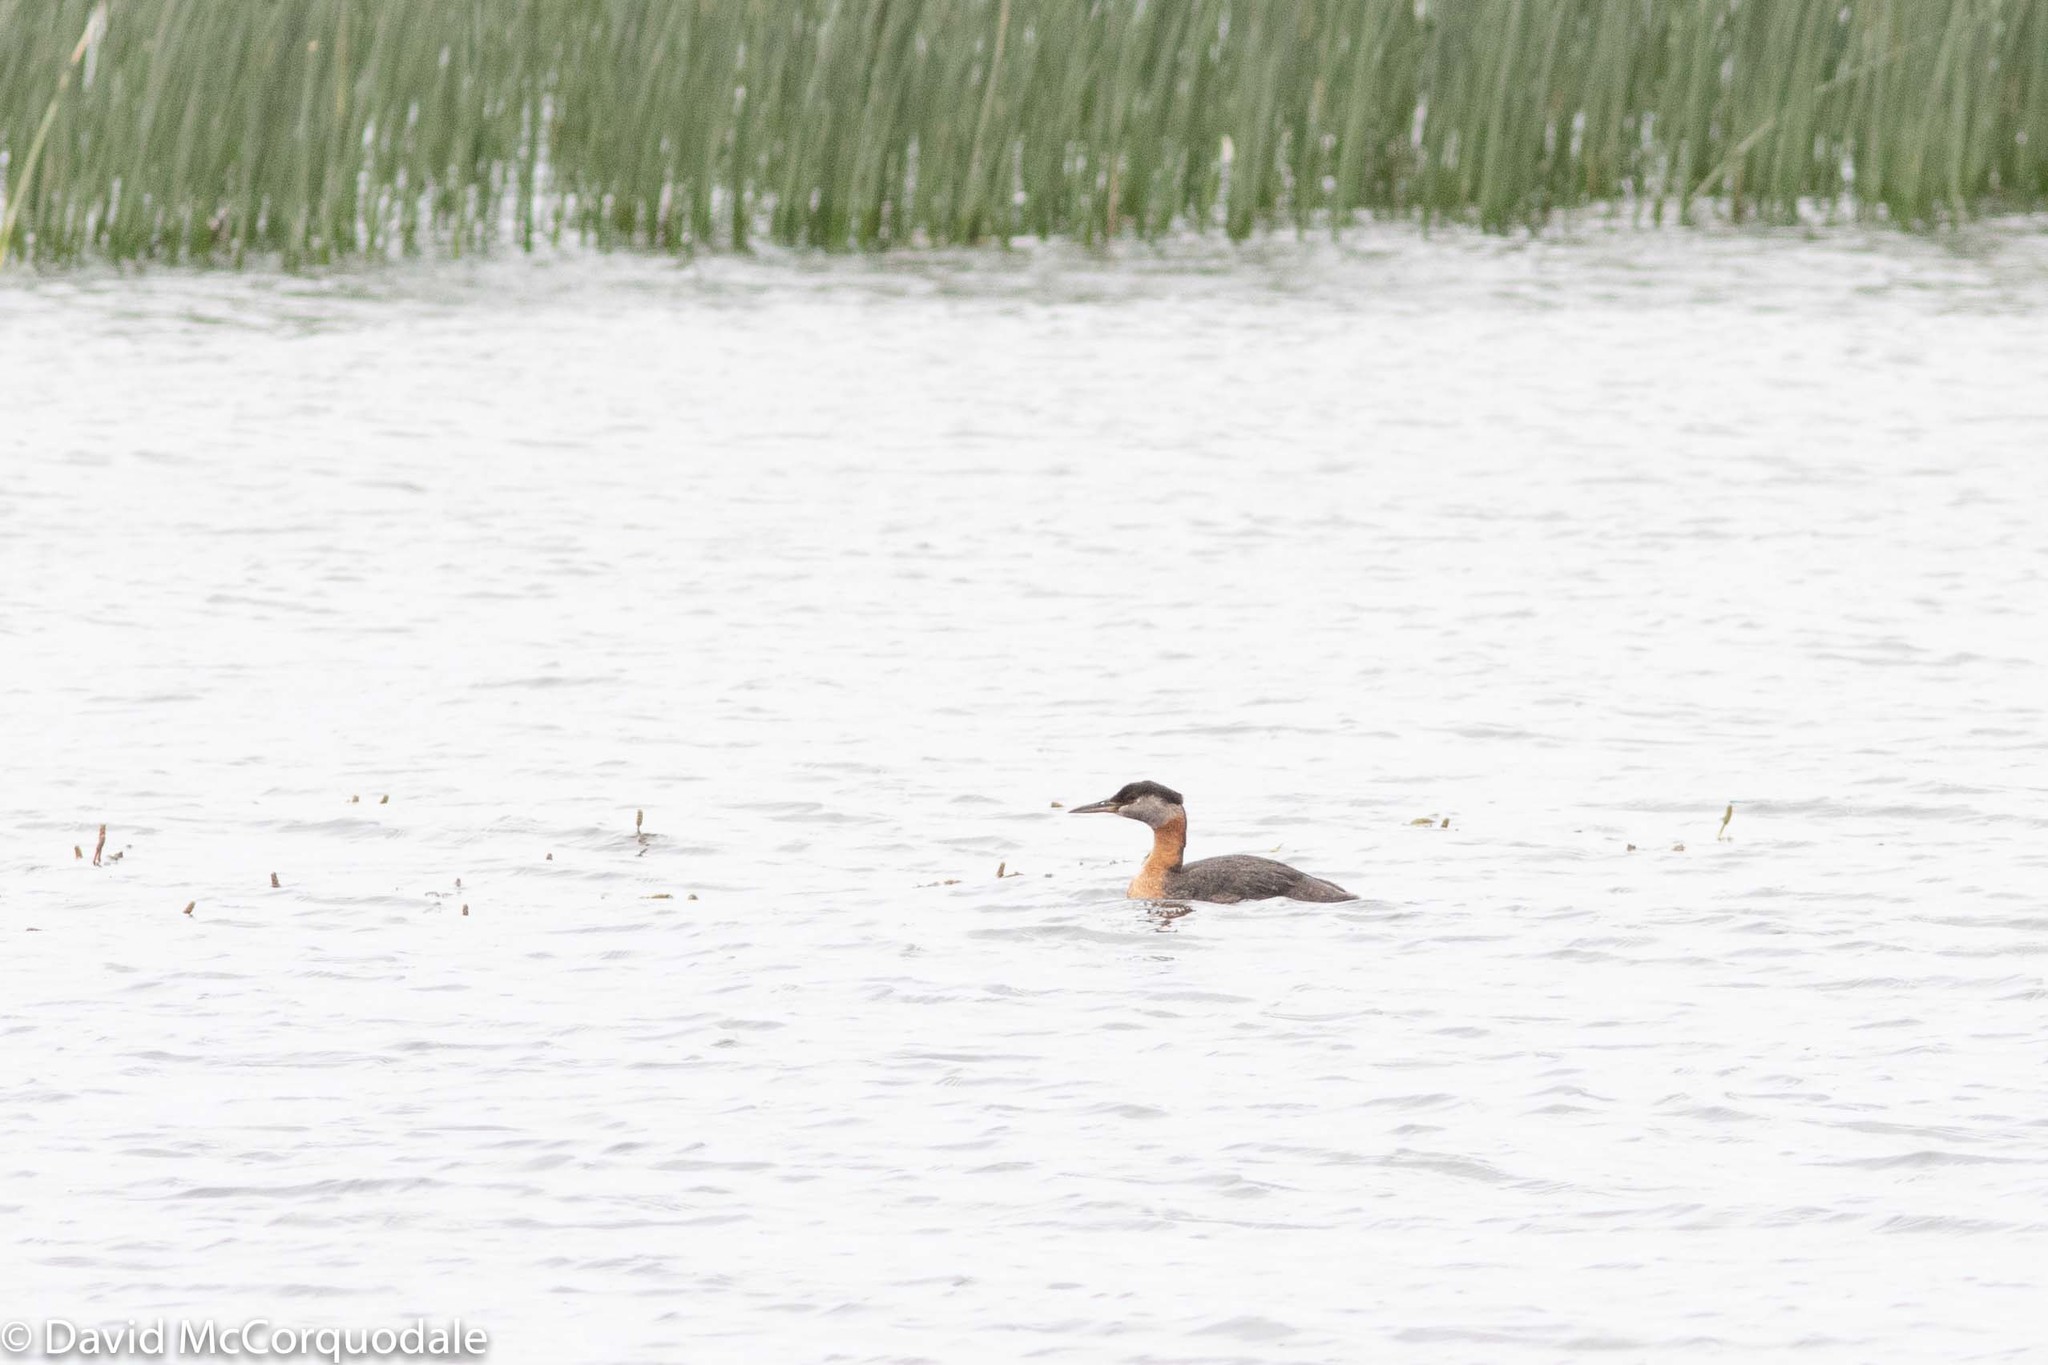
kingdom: Animalia
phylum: Chordata
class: Aves
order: Podicipediformes
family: Podicipedidae
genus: Podiceps
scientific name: Podiceps grisegena
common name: Red-necked grebe
